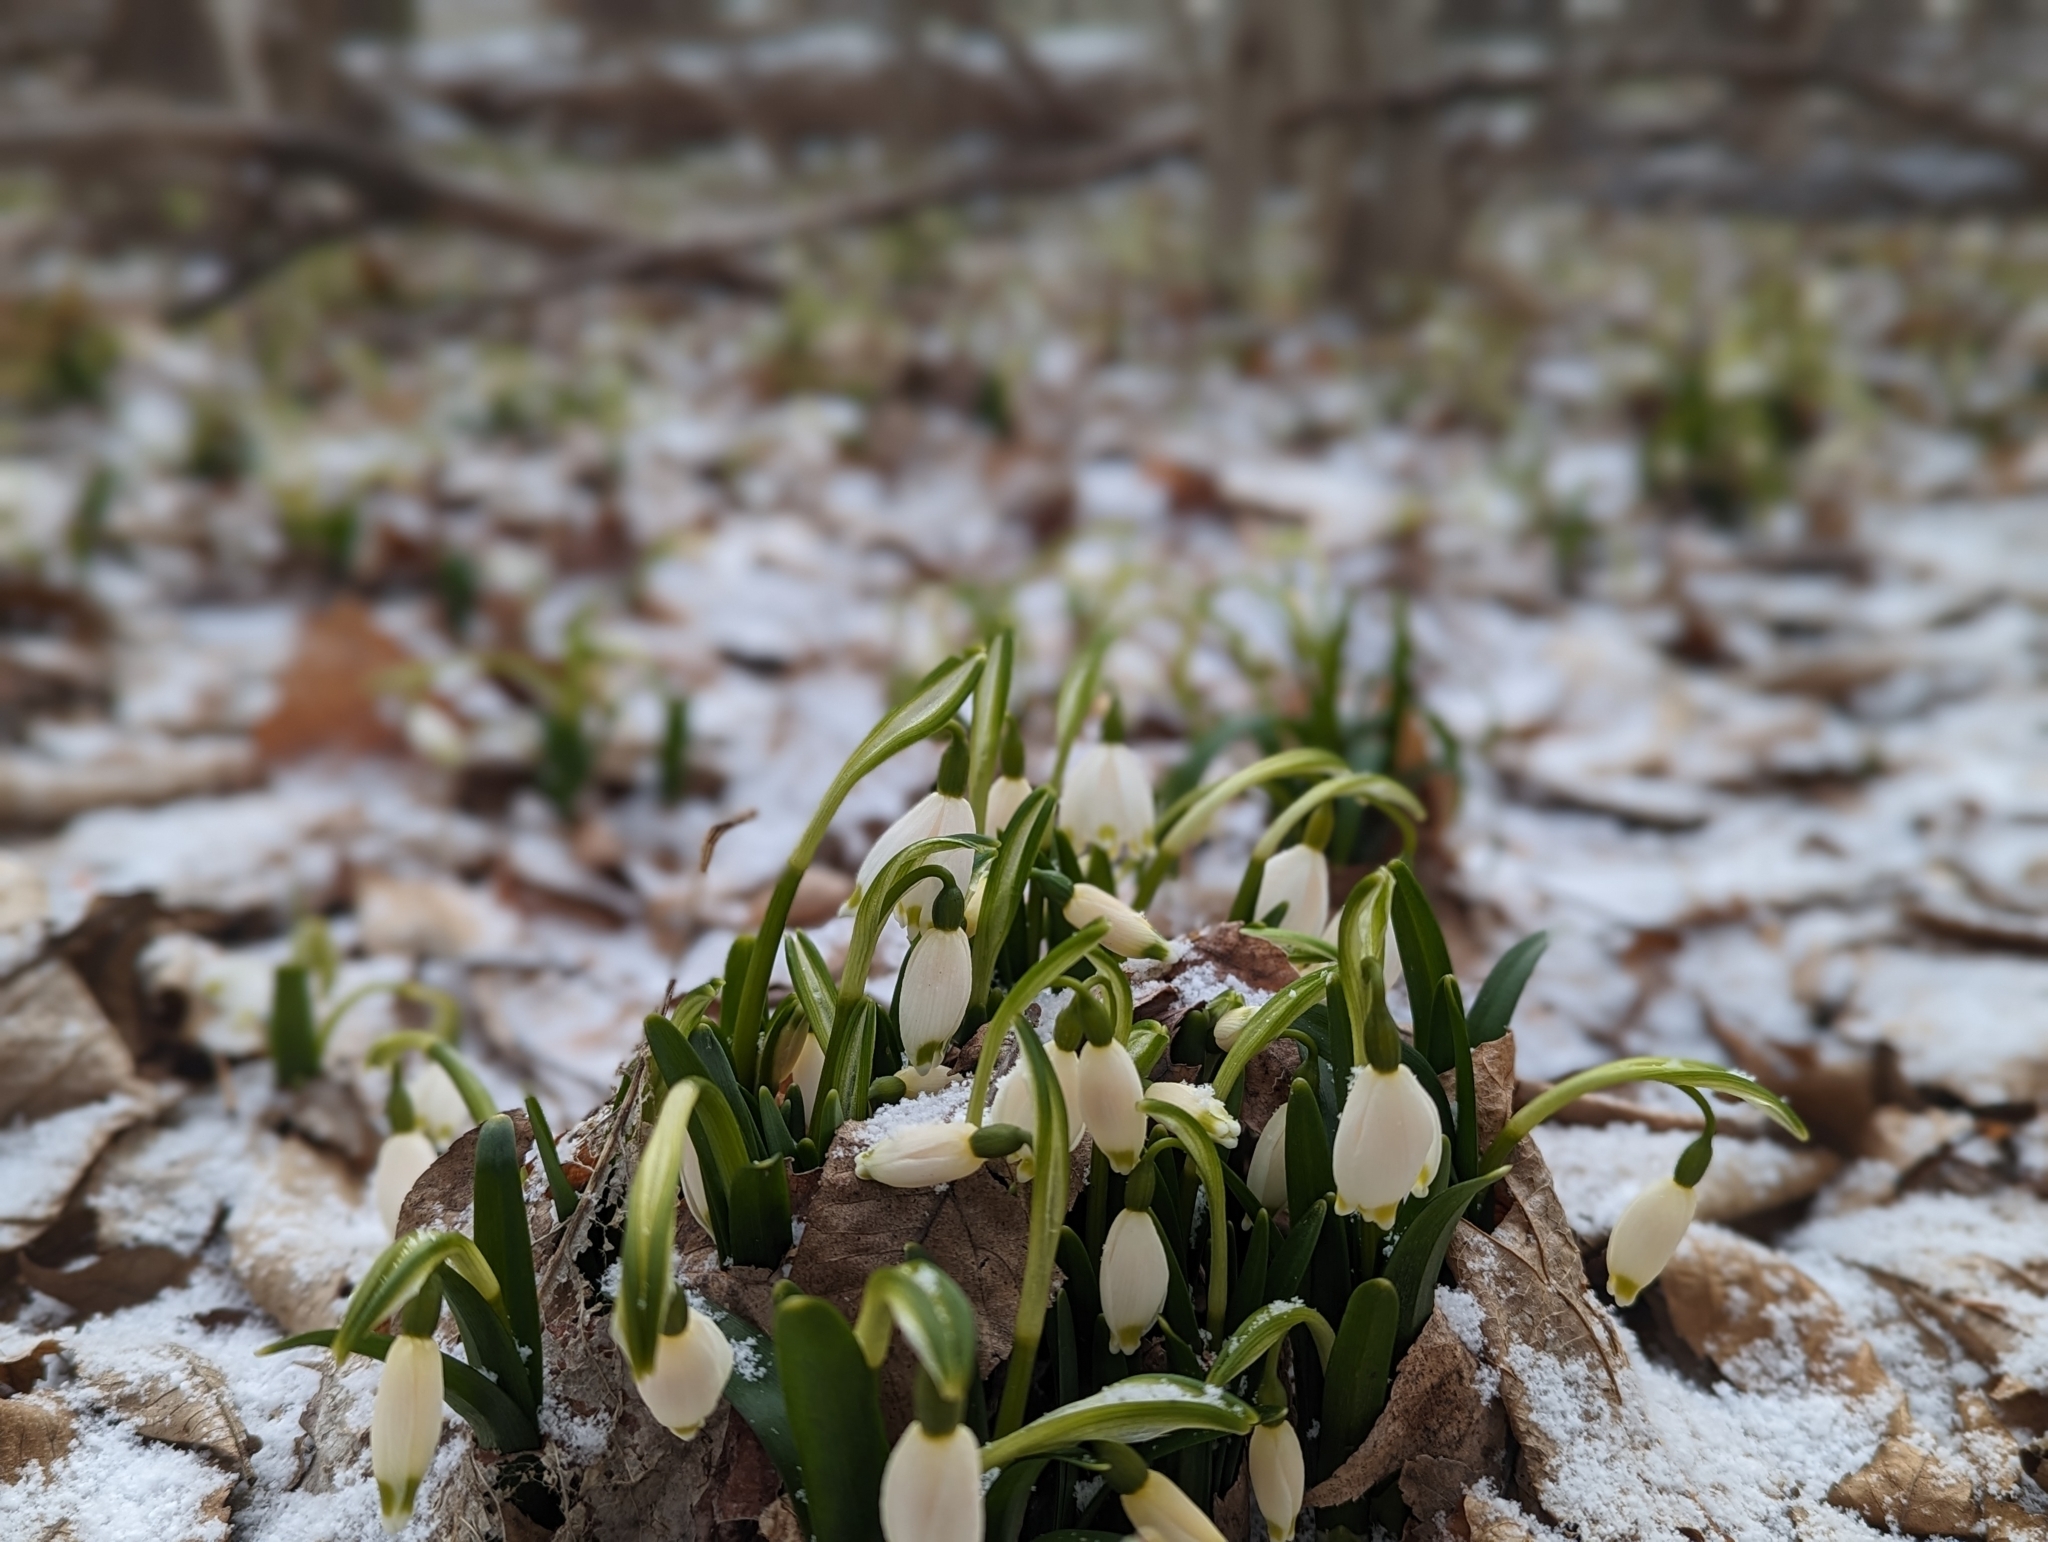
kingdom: Plantae
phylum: Tracheophyta
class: Liliopsida
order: Asparagales
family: Amaryllidaceae
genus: Leucojum
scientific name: Leucojum vernum
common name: Spring snowflake
